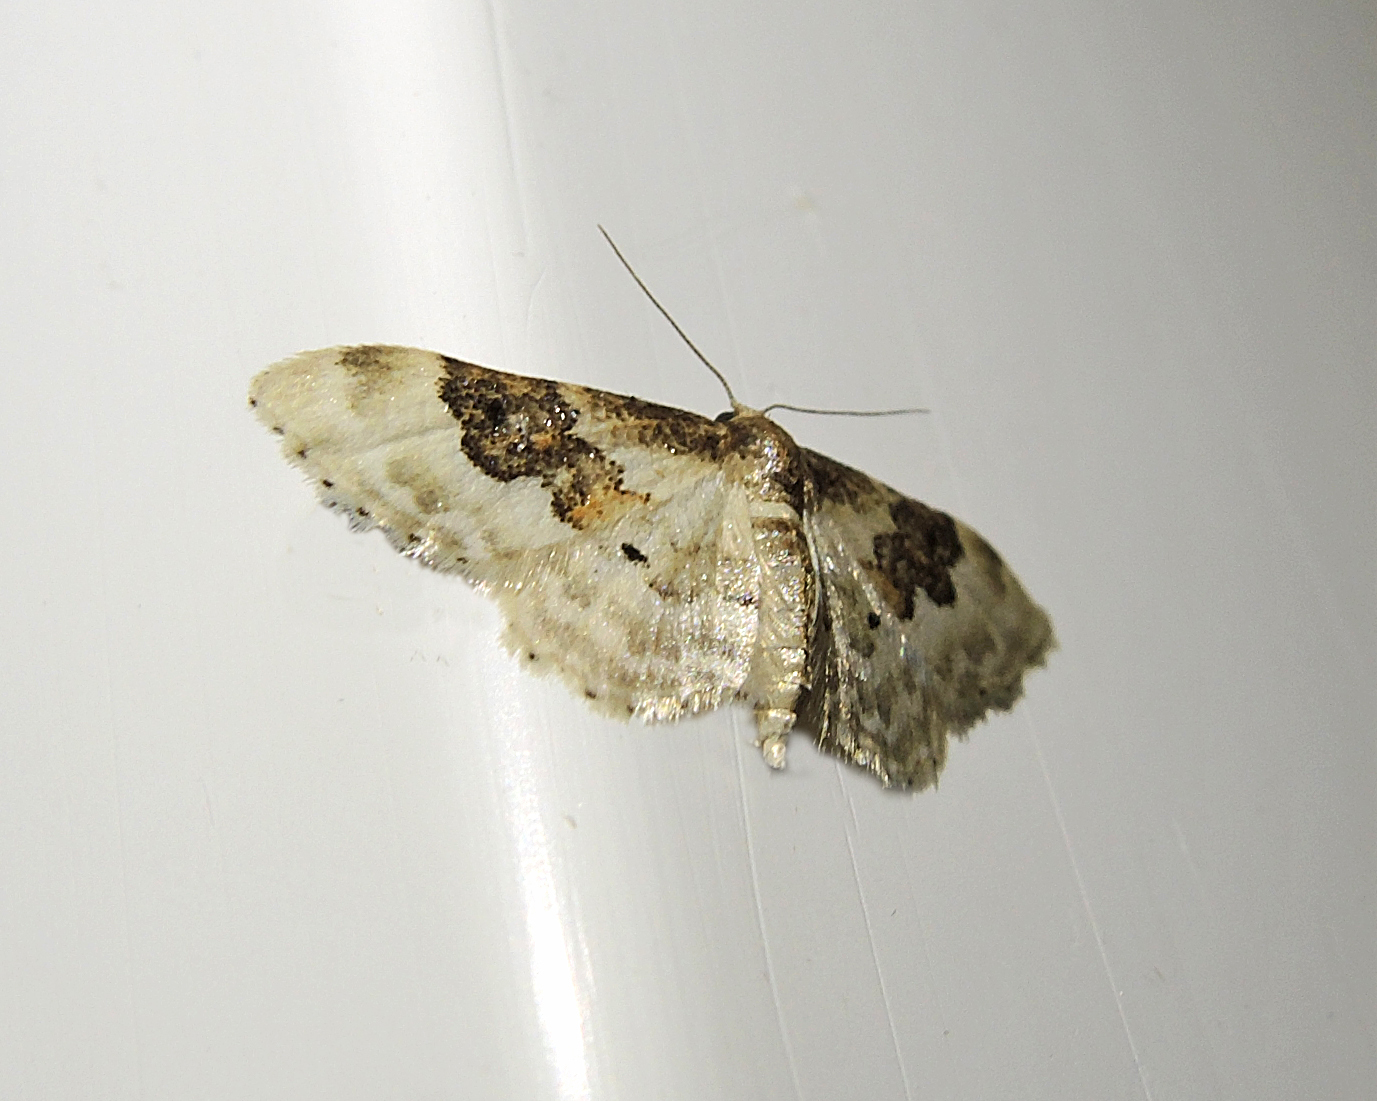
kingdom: Animalia
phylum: Arthropoda
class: Insecta
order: Lepidoptera
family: Geometridae
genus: Idaea
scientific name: Idaea rusticata
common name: Least carpet
